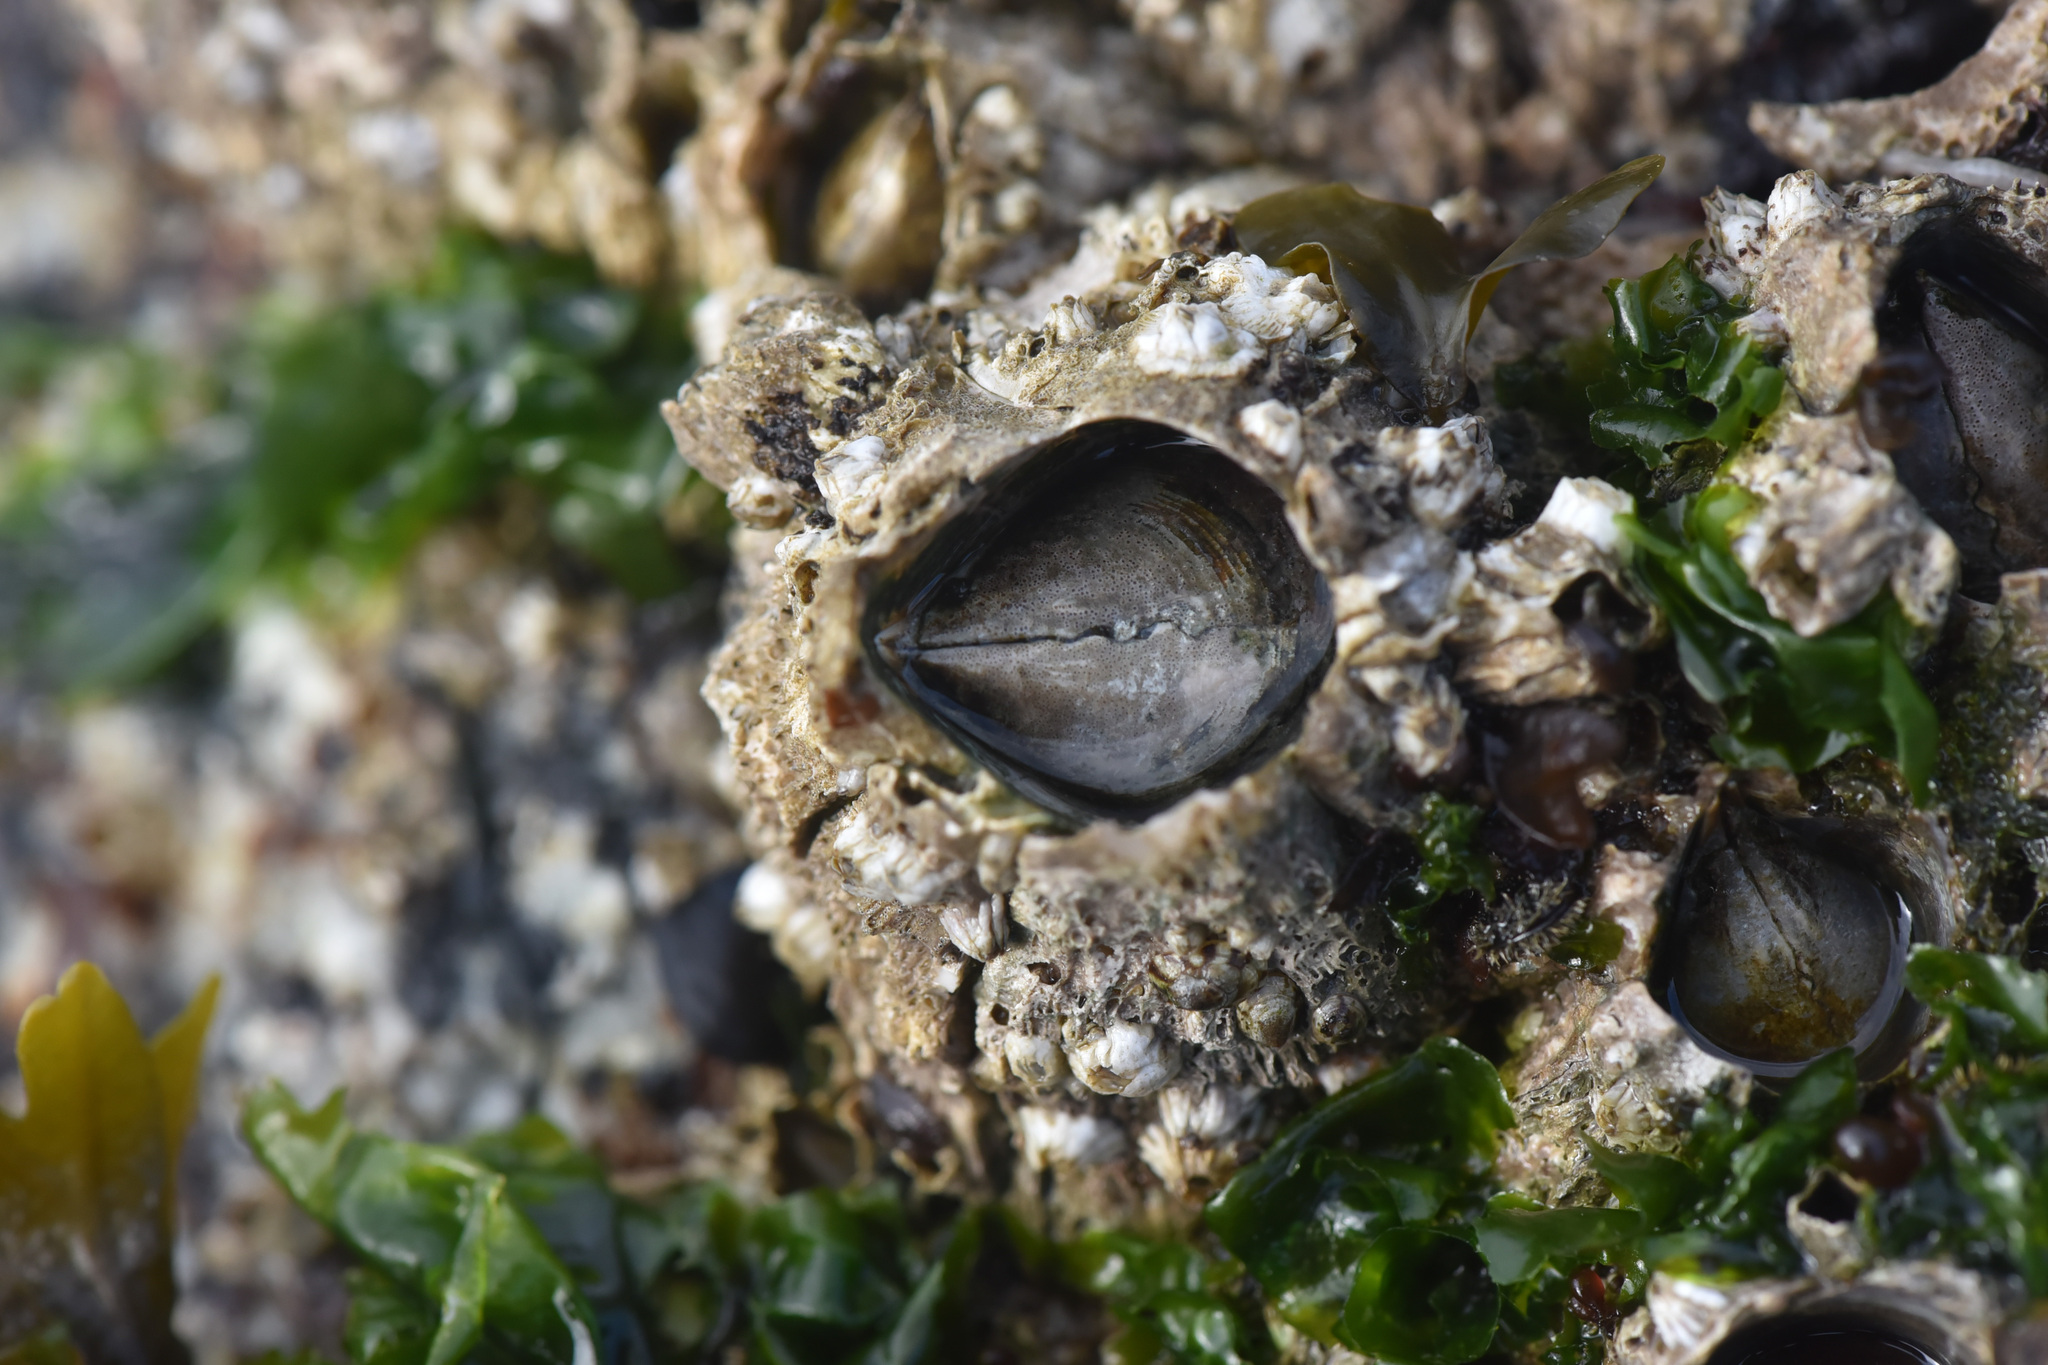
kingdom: Animalia
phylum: Arthropoda
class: Maxillopoda
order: Sessilia
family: Archaeobalanidae
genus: Semibalanus
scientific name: Semibalanus cariosus
